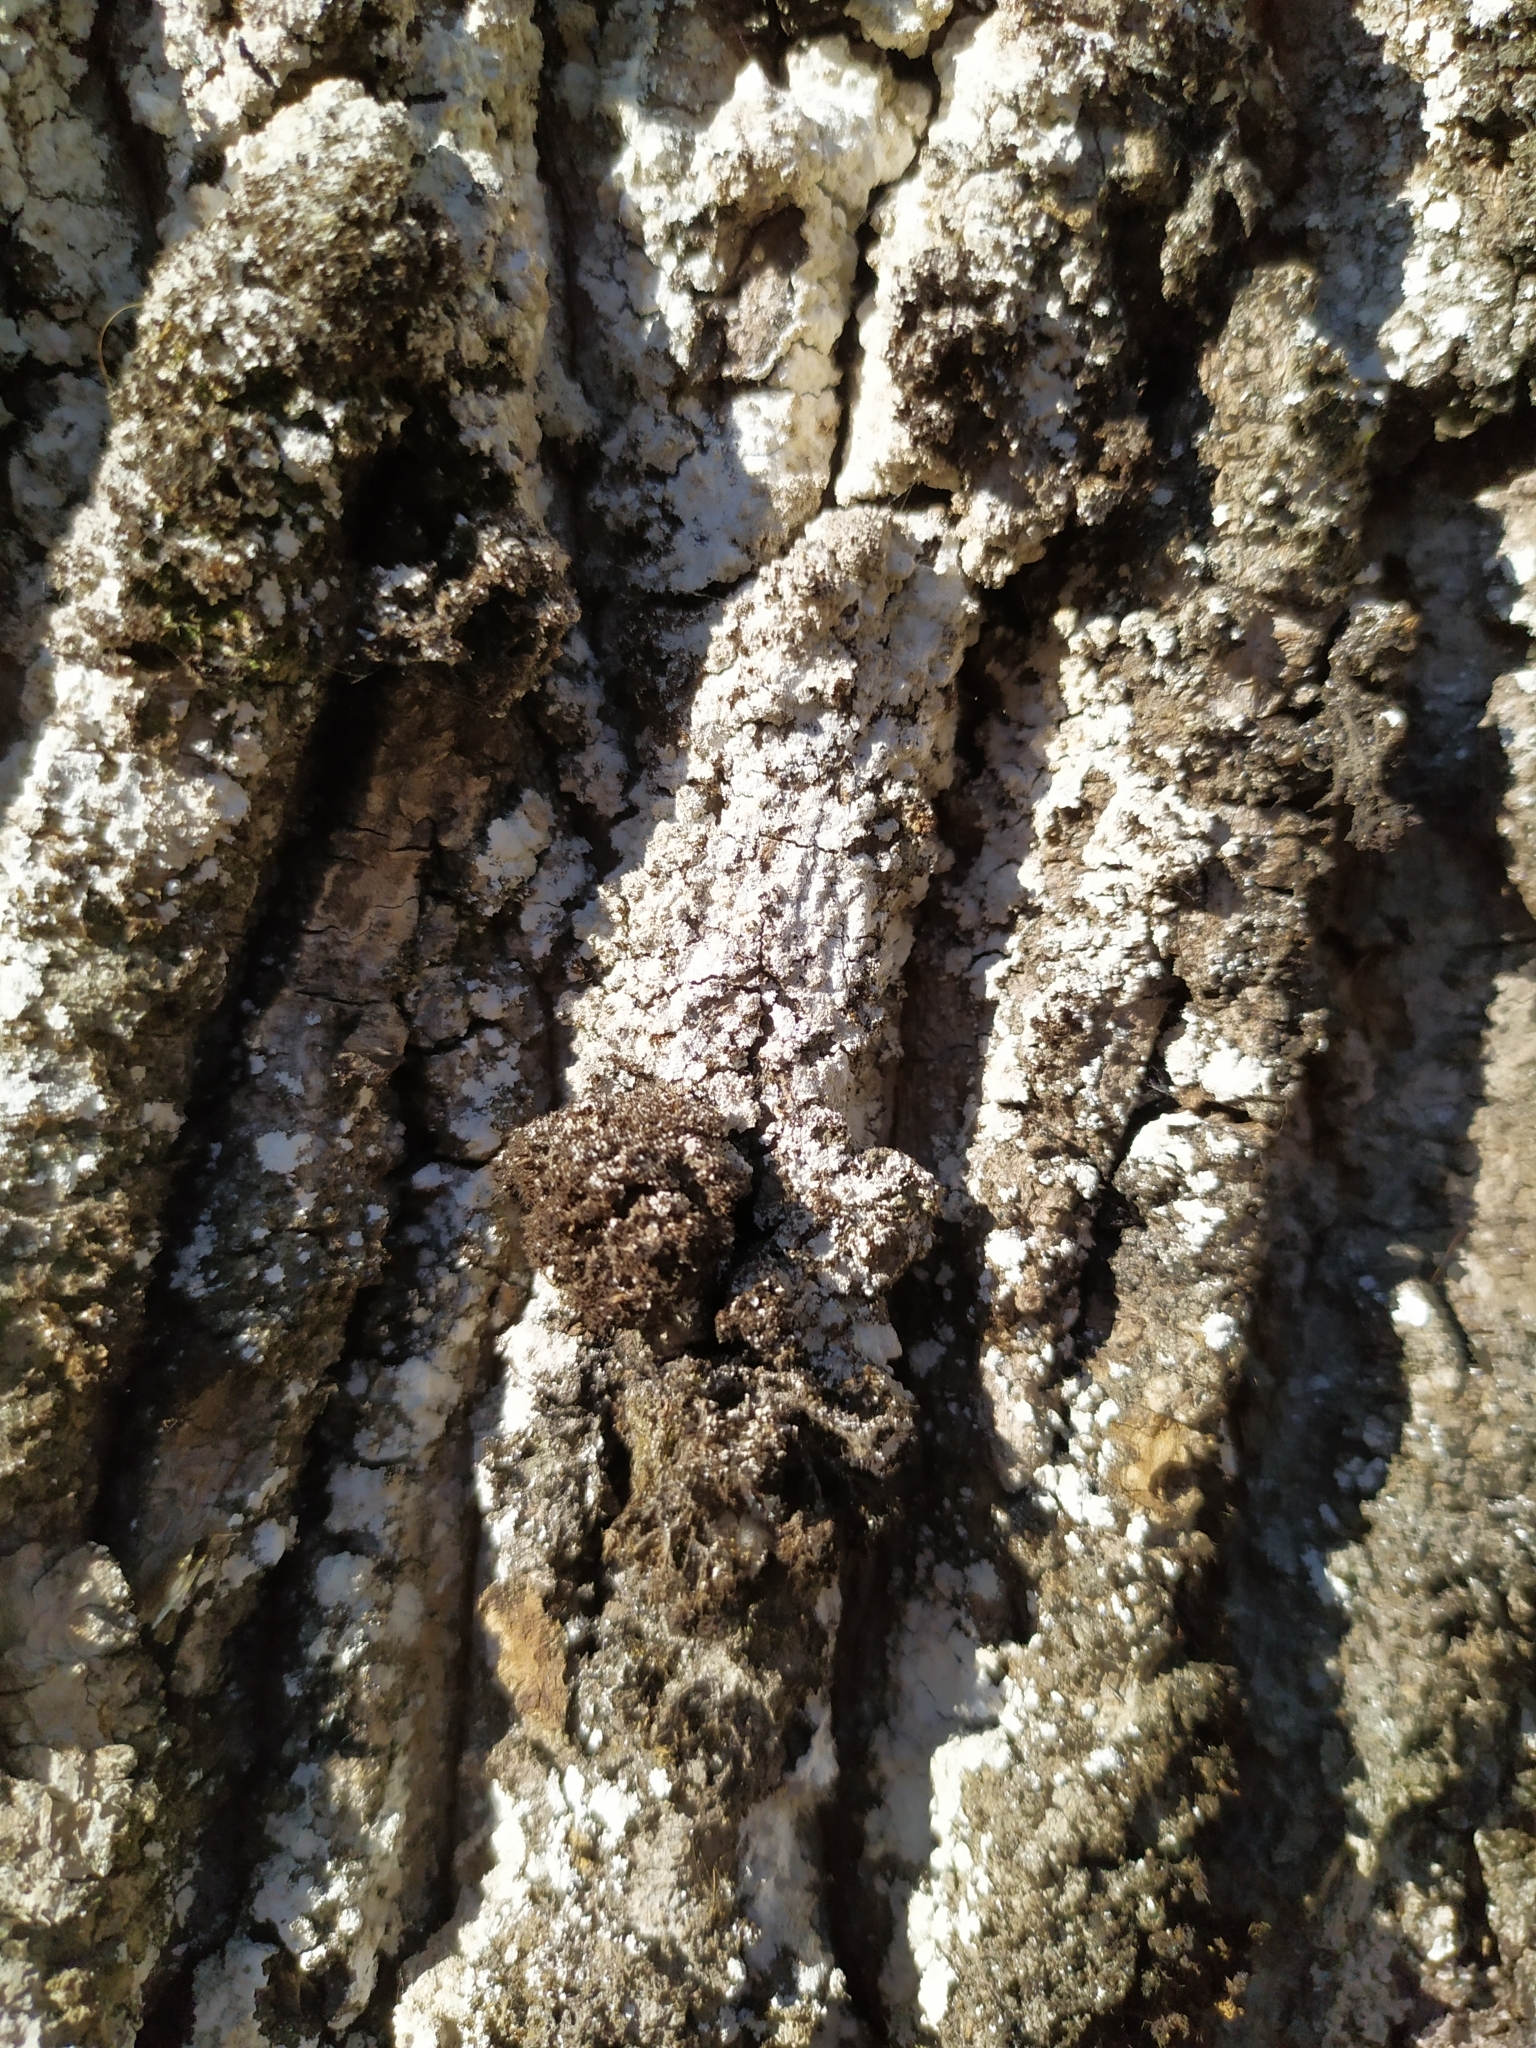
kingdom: Fungi
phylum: Ascomycota
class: Lecanoromycetes
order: Lecanorales
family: Stereocaulaceae
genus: Lepraria
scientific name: Lepraria
